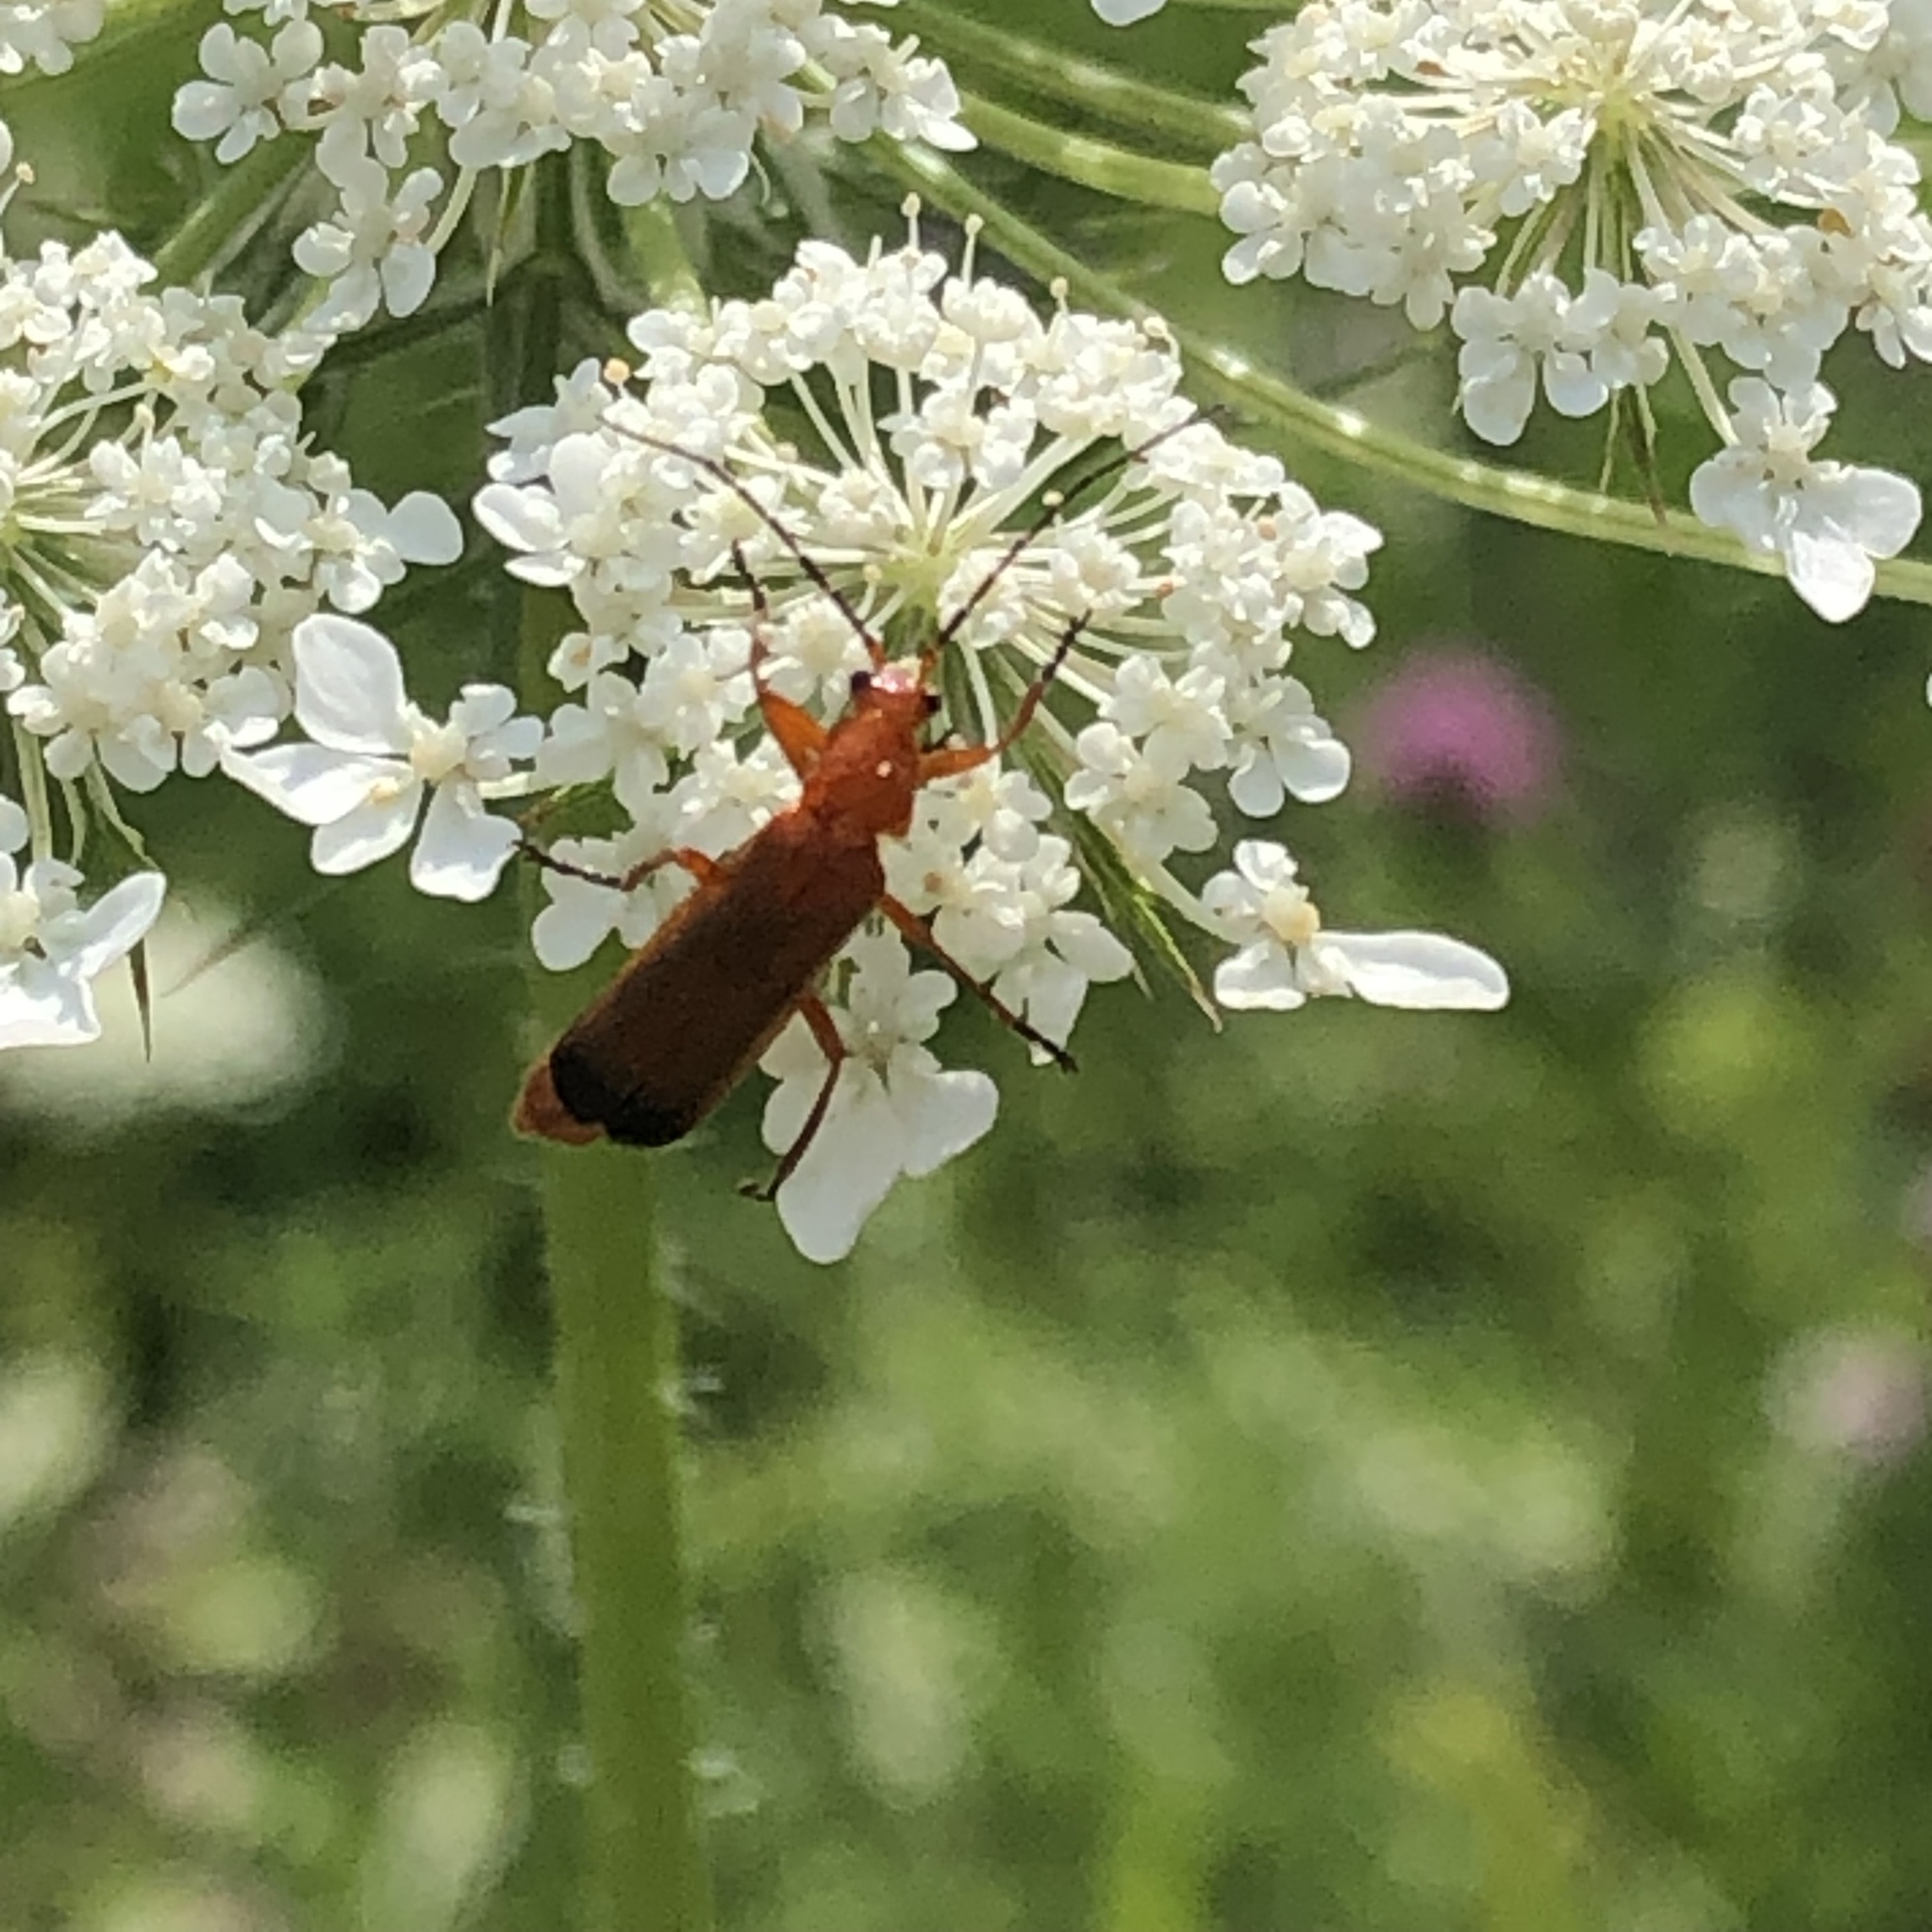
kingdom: Animalia
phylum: Arthropoda
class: Insecta
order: Coleoptera
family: Cantharidae
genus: Rhagonycha
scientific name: Rhagonycha fulva
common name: Common red soldier beetle
